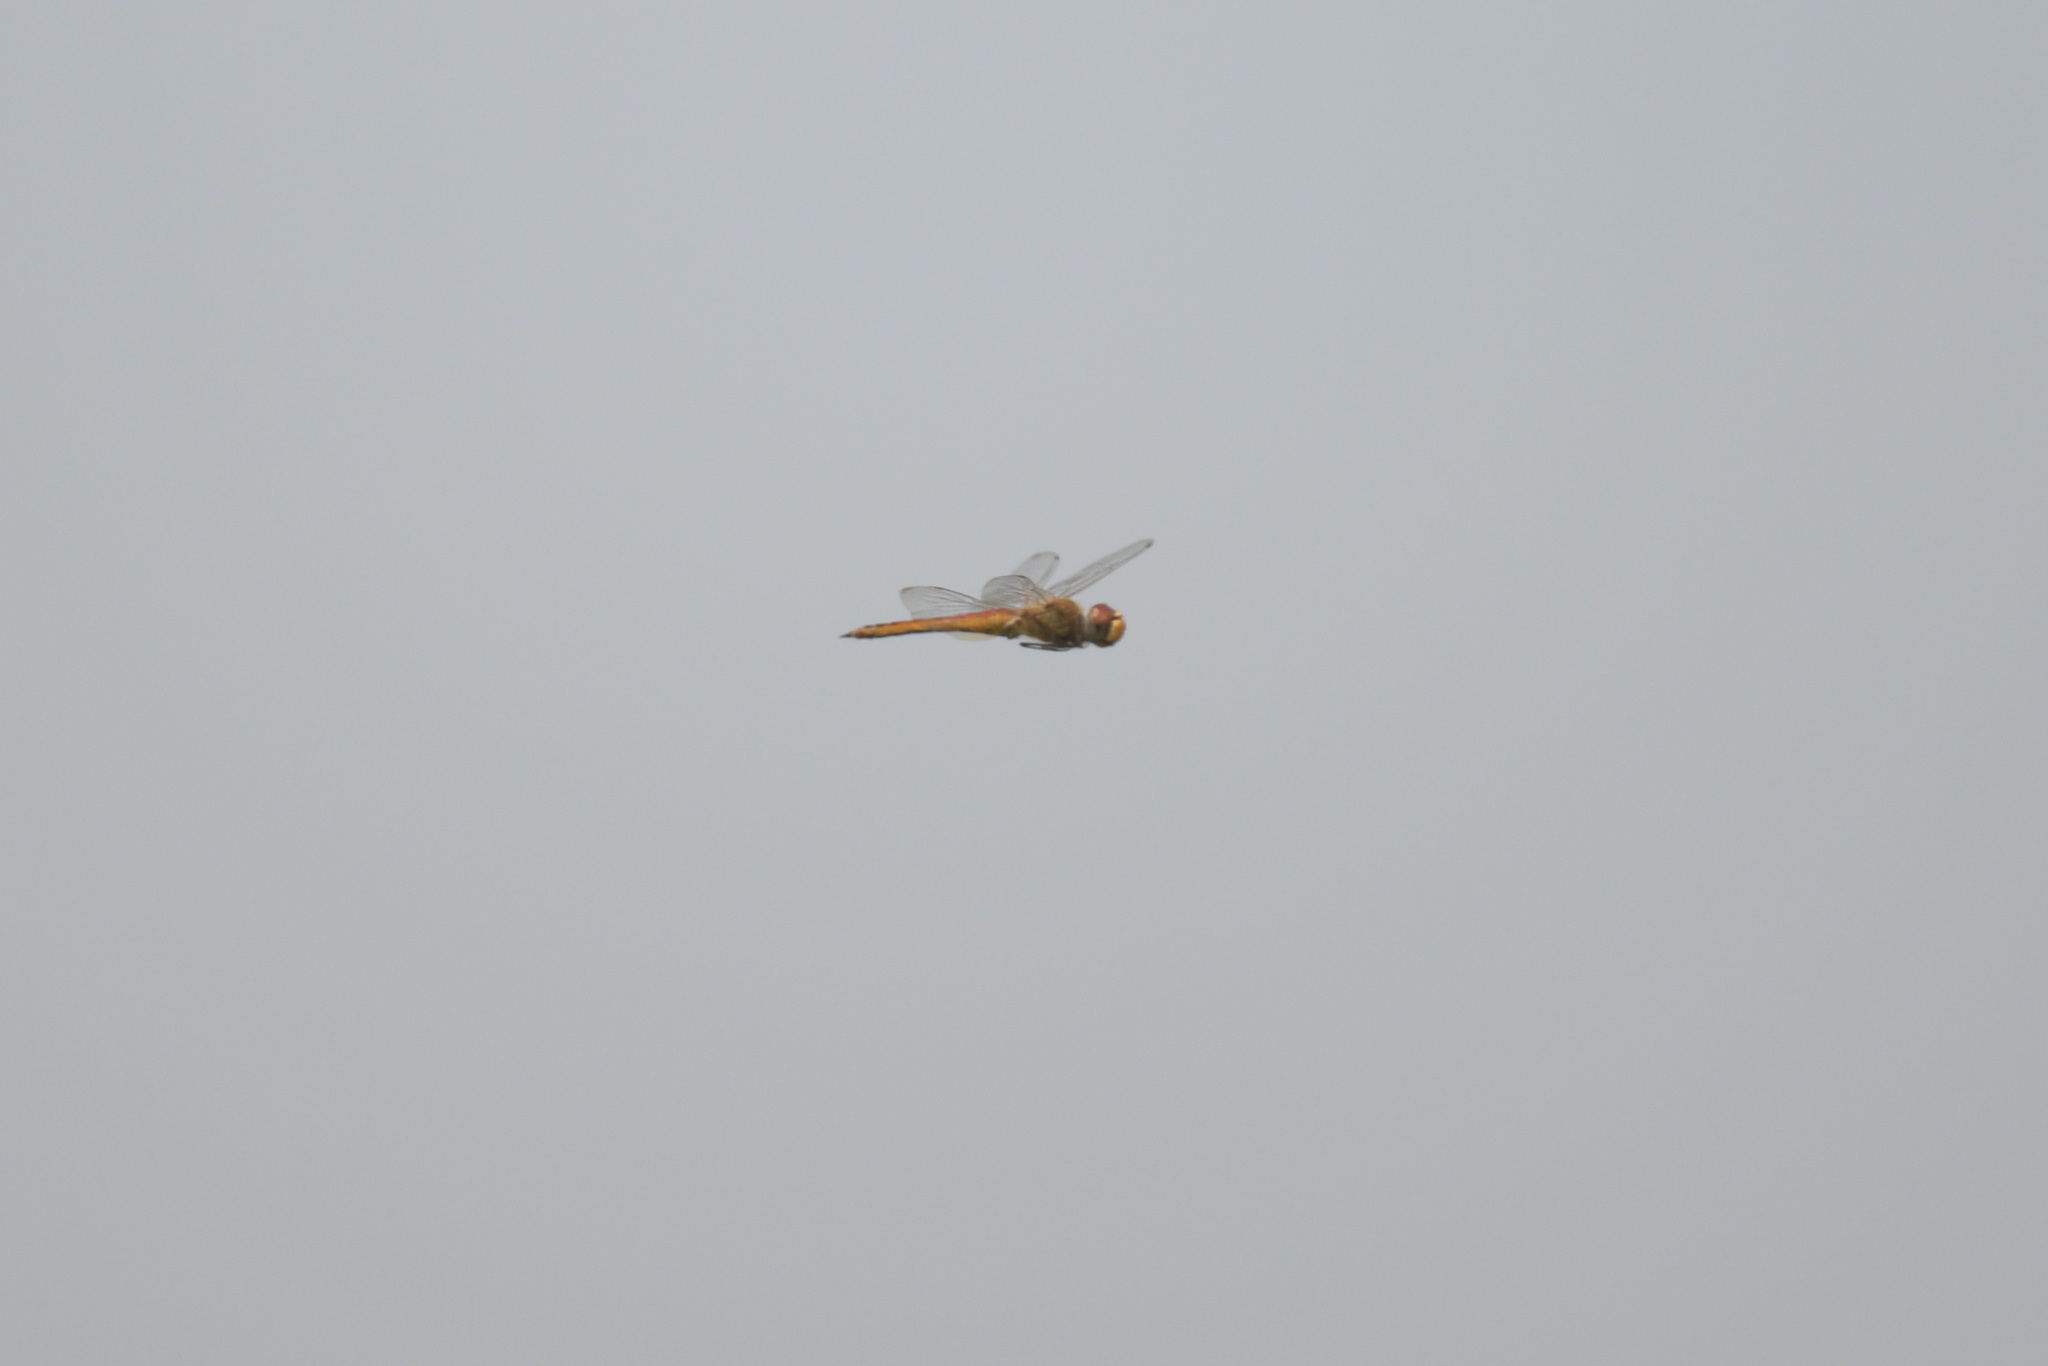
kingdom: Animalia
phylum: Arthropoda
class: Insecta
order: Odonata
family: Libellulidae
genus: Pantala
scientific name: Pantala flavescens
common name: Wandering glider
